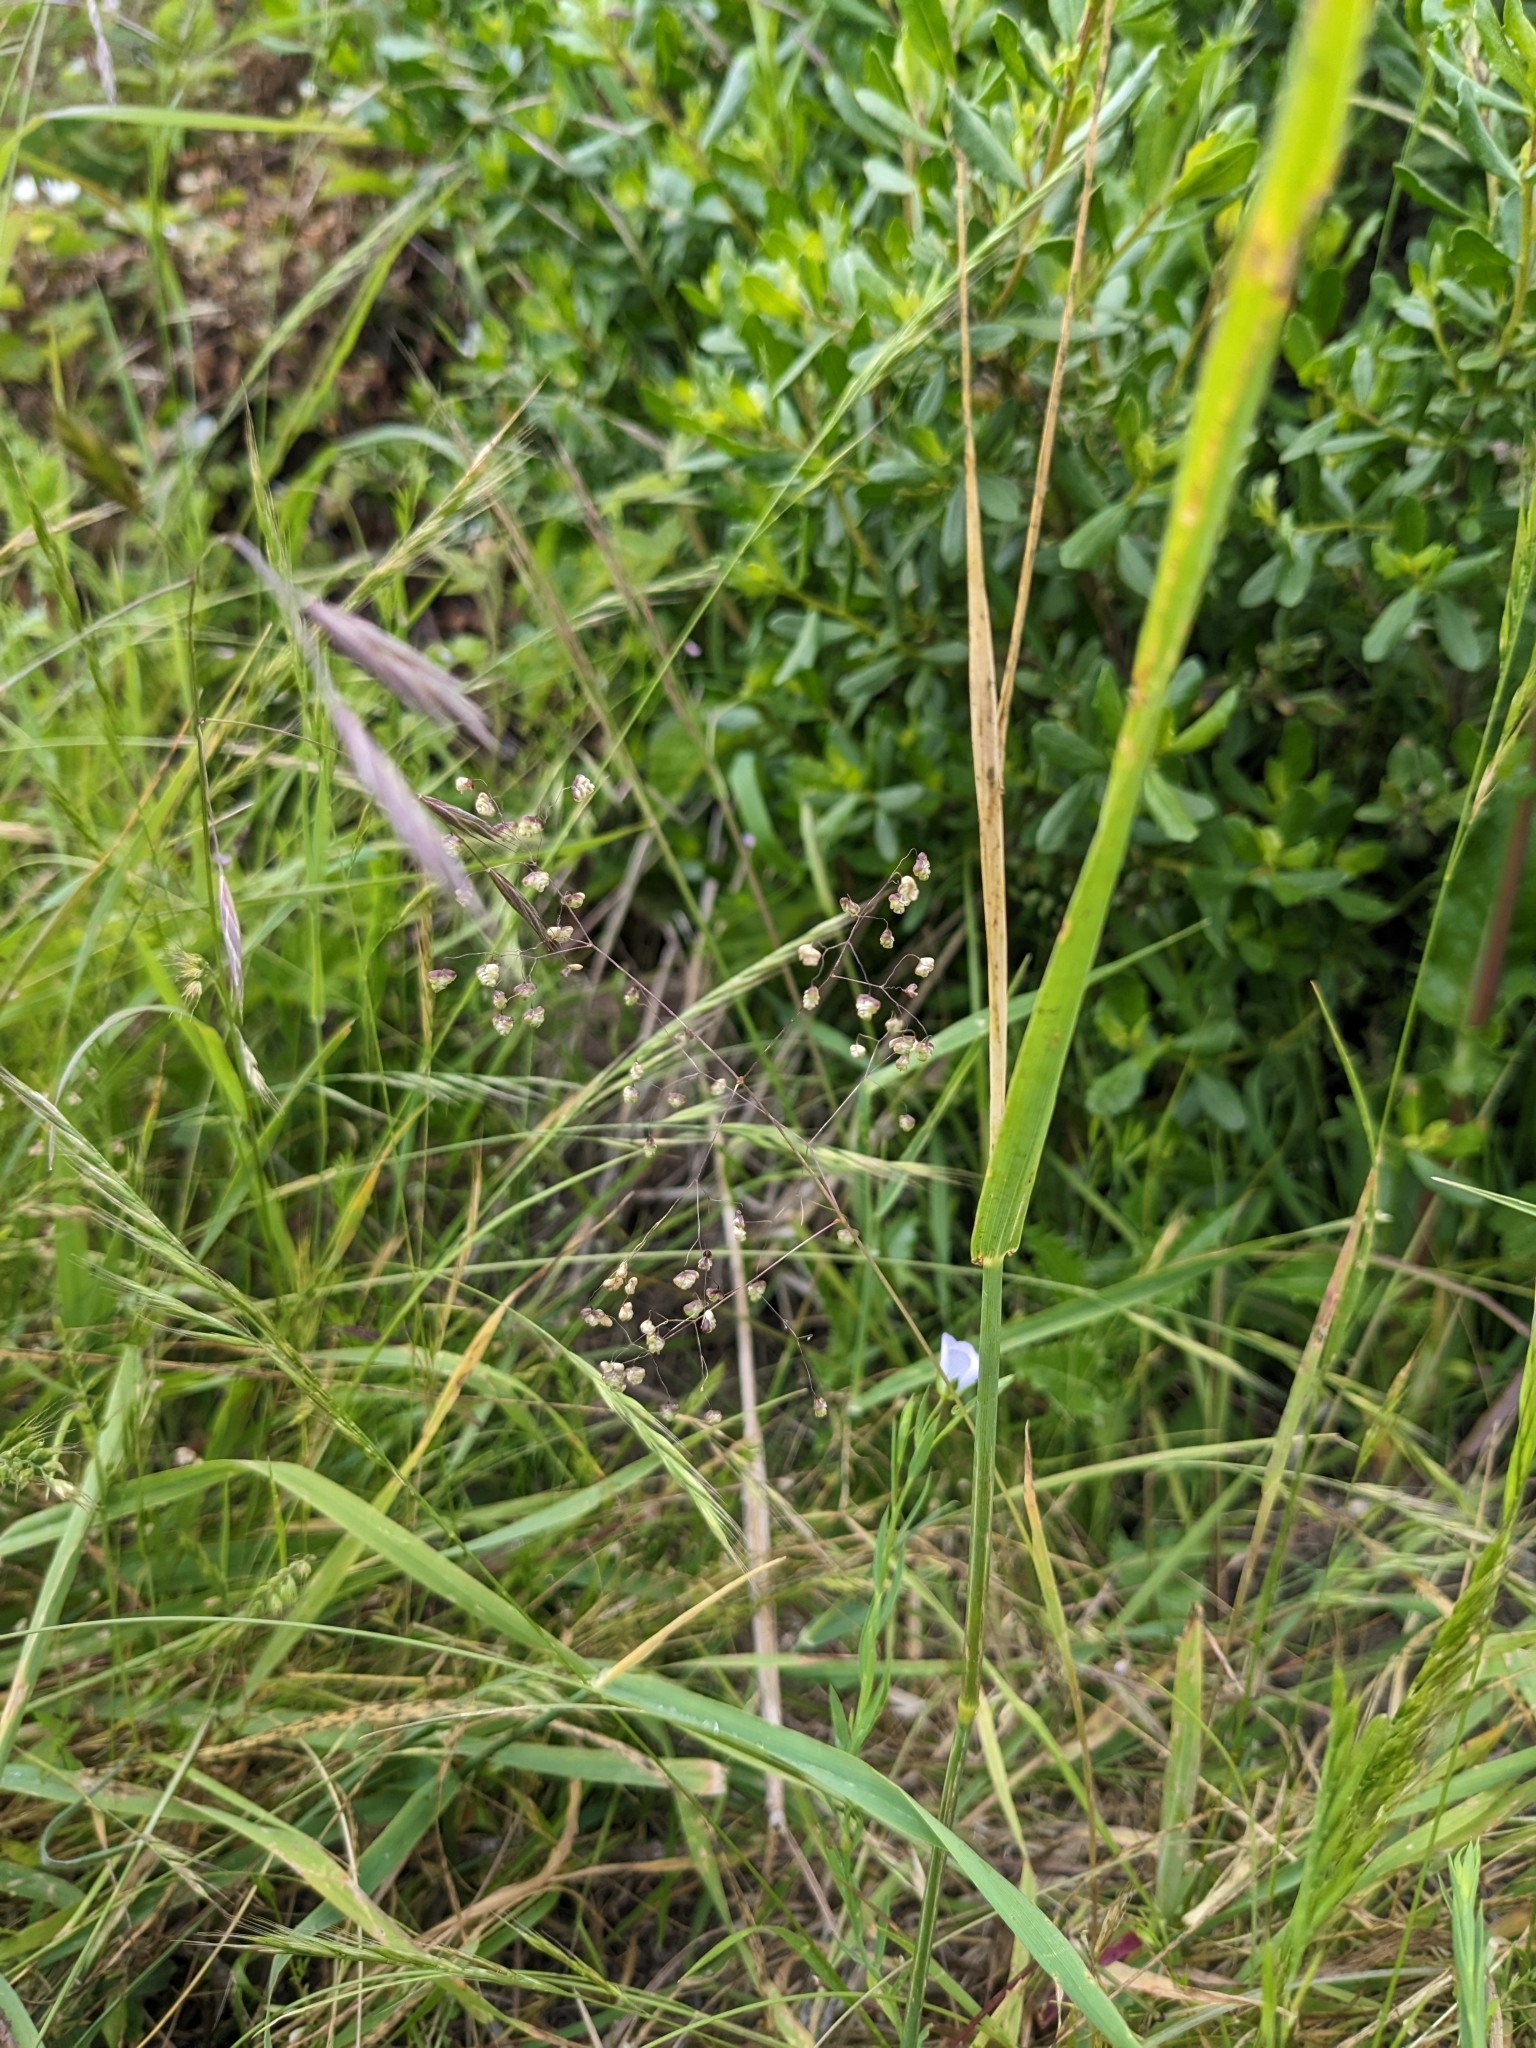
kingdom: Plantae
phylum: Tracheophyta
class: Liliopsida
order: Poales
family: Poaceae
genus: Briza
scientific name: Briza minor
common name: Lesser quaking-grass
